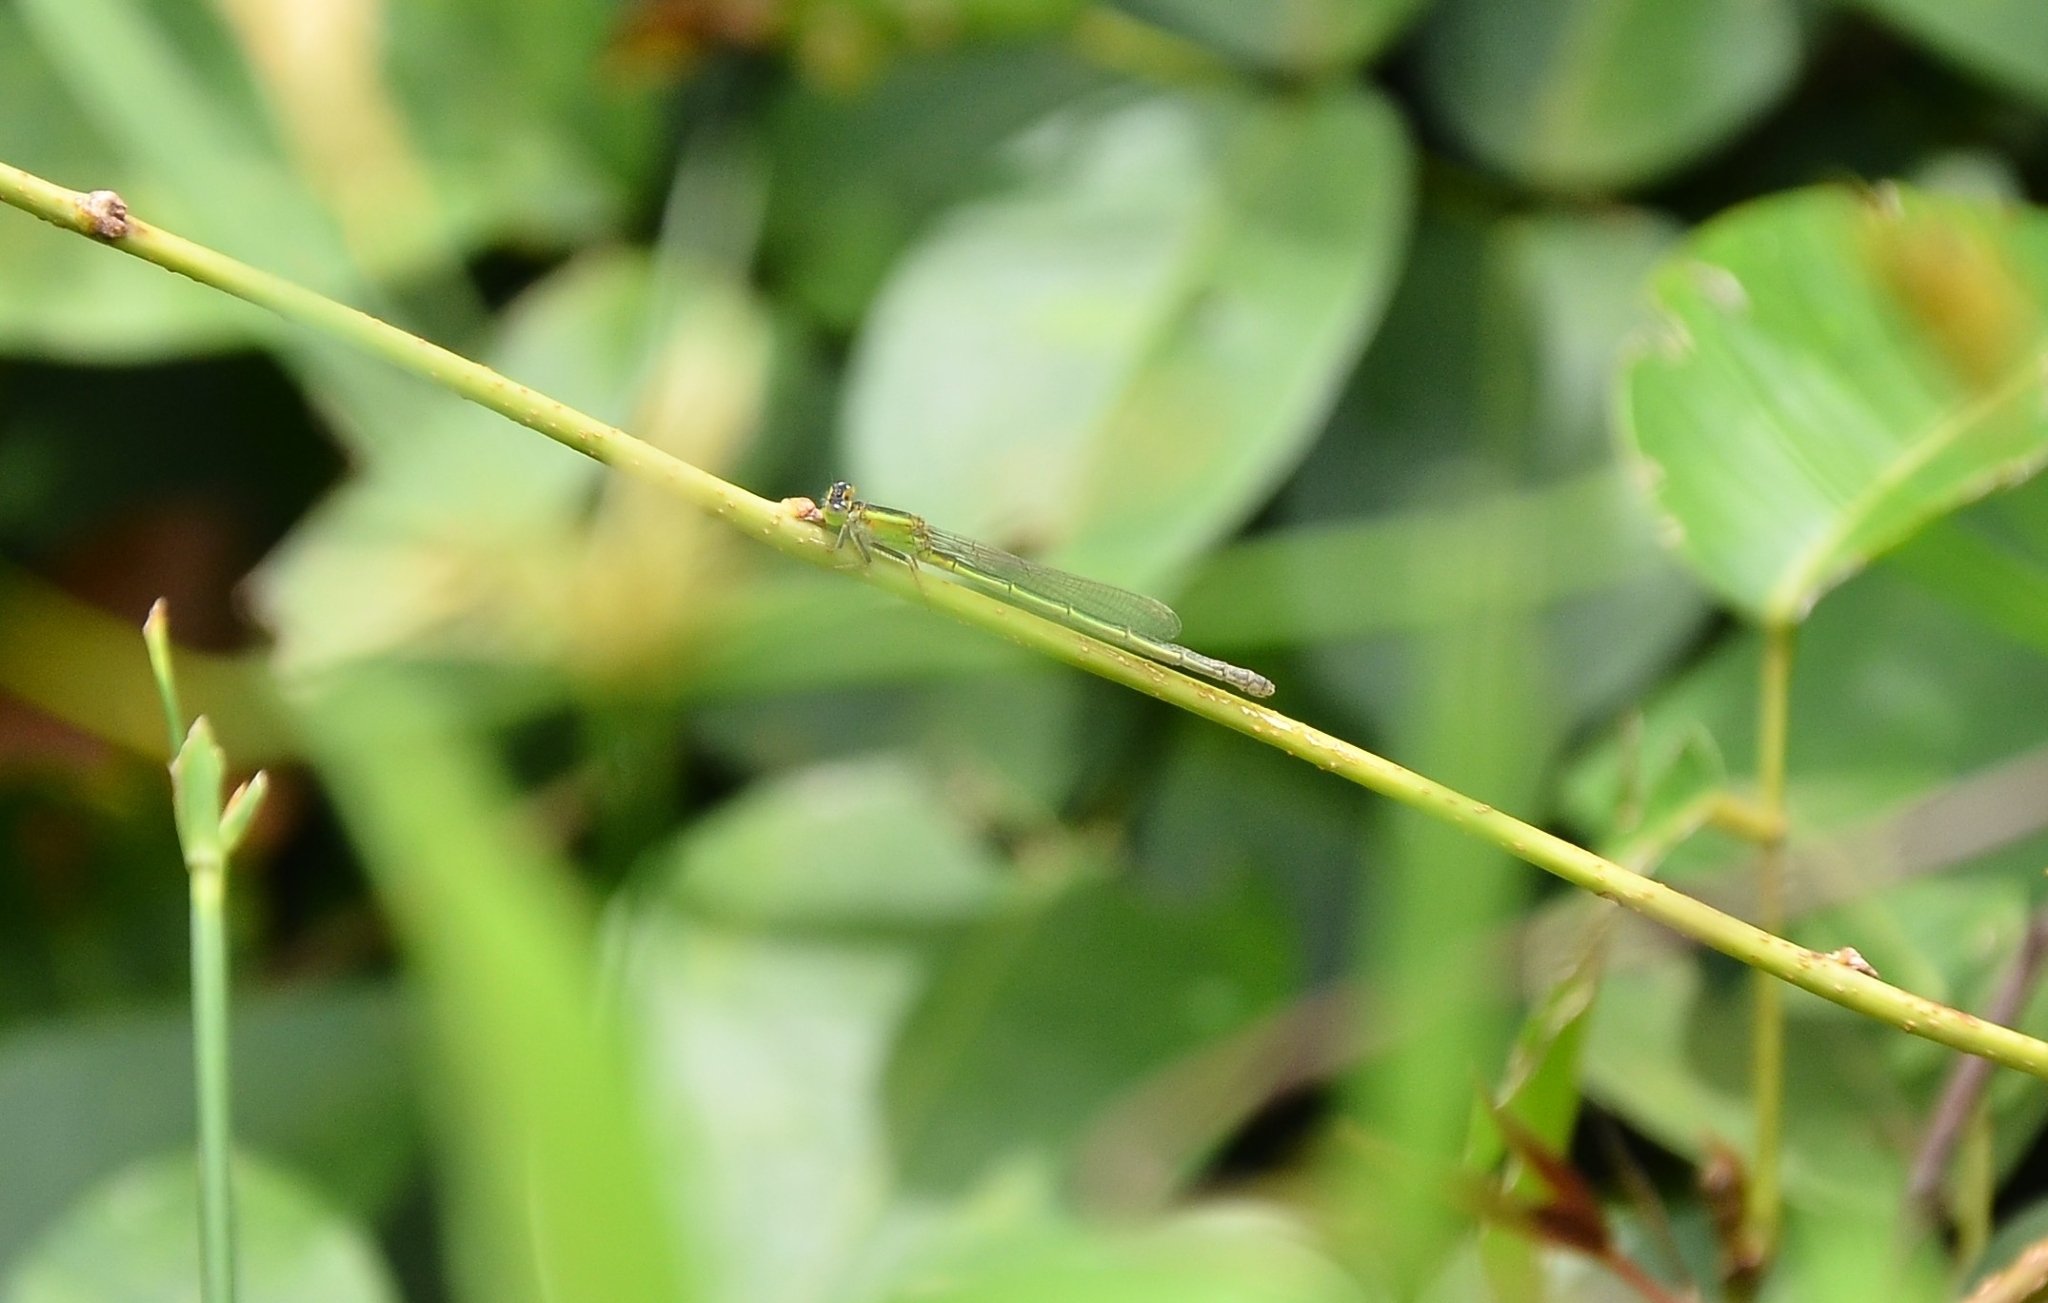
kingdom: Animalia
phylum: Arthropoda
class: Insecta
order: Odonata
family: Coenagrionidae
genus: Ischnura
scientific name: Ischnura senegalensis
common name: Tropical bluetail
